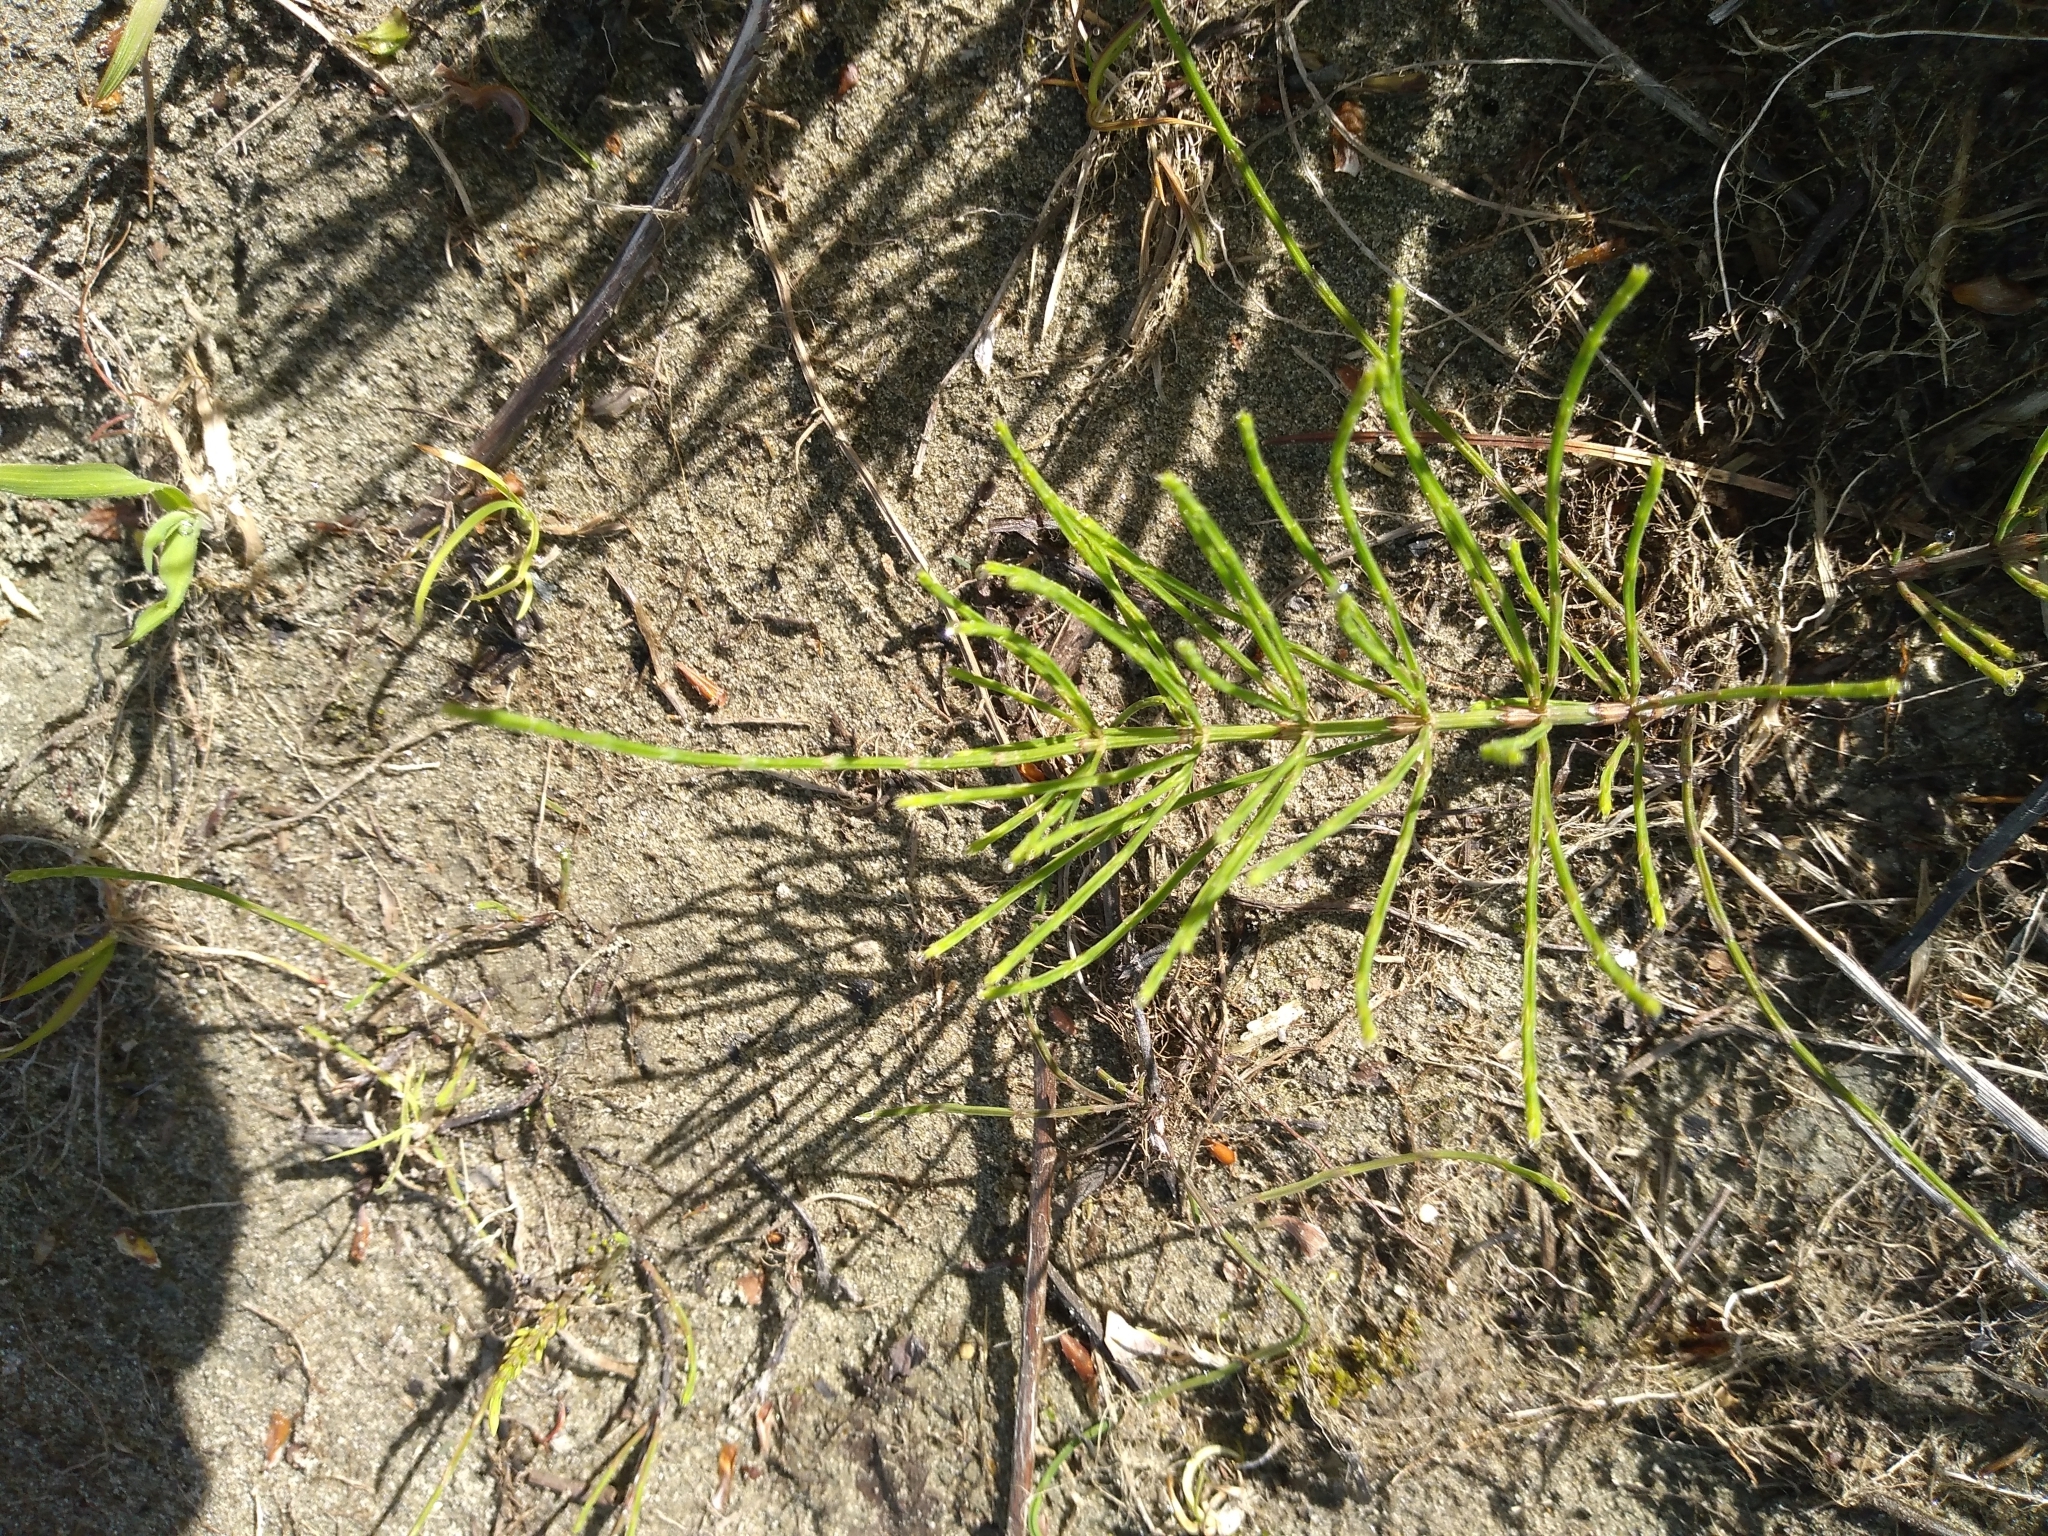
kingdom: Plantae
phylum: Tracheophyta
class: Polypodiopsida
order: Equisetales
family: Equisetaceae
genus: Equisetum
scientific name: Equisetum arvense
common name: Field horsetail
